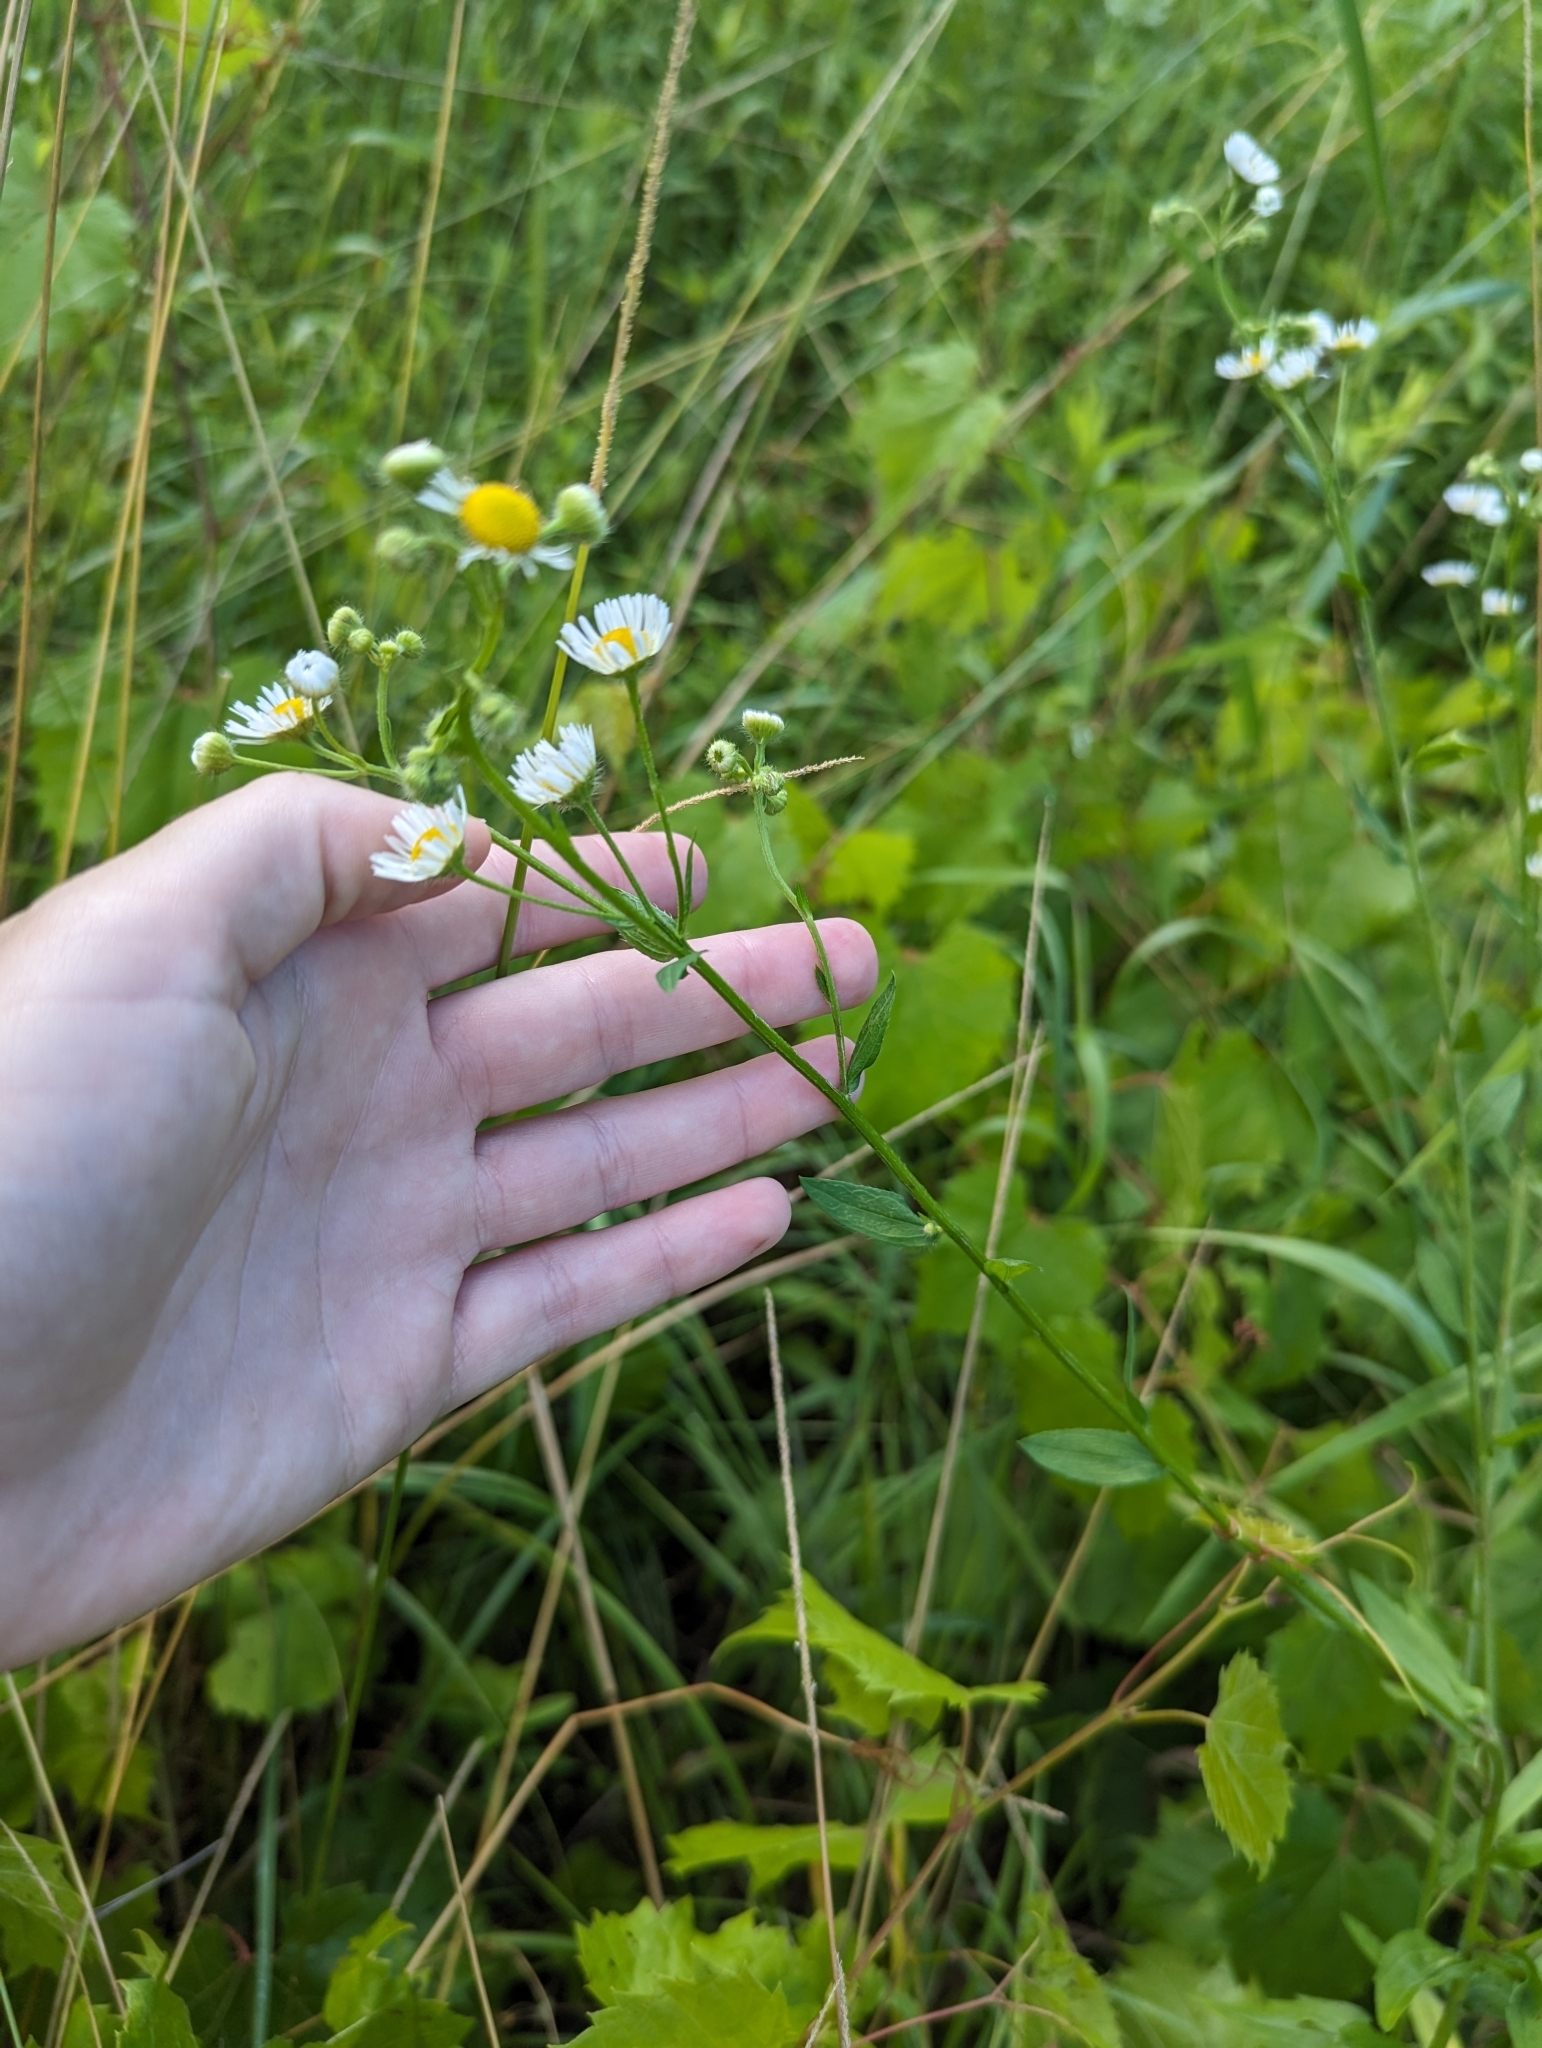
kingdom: Plantae
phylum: Tracheophyta
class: Magnoliopsida
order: Asterales
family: Asteraceae
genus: Erigeron
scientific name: Erigeron strigosus
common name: Common eastern fleabane
